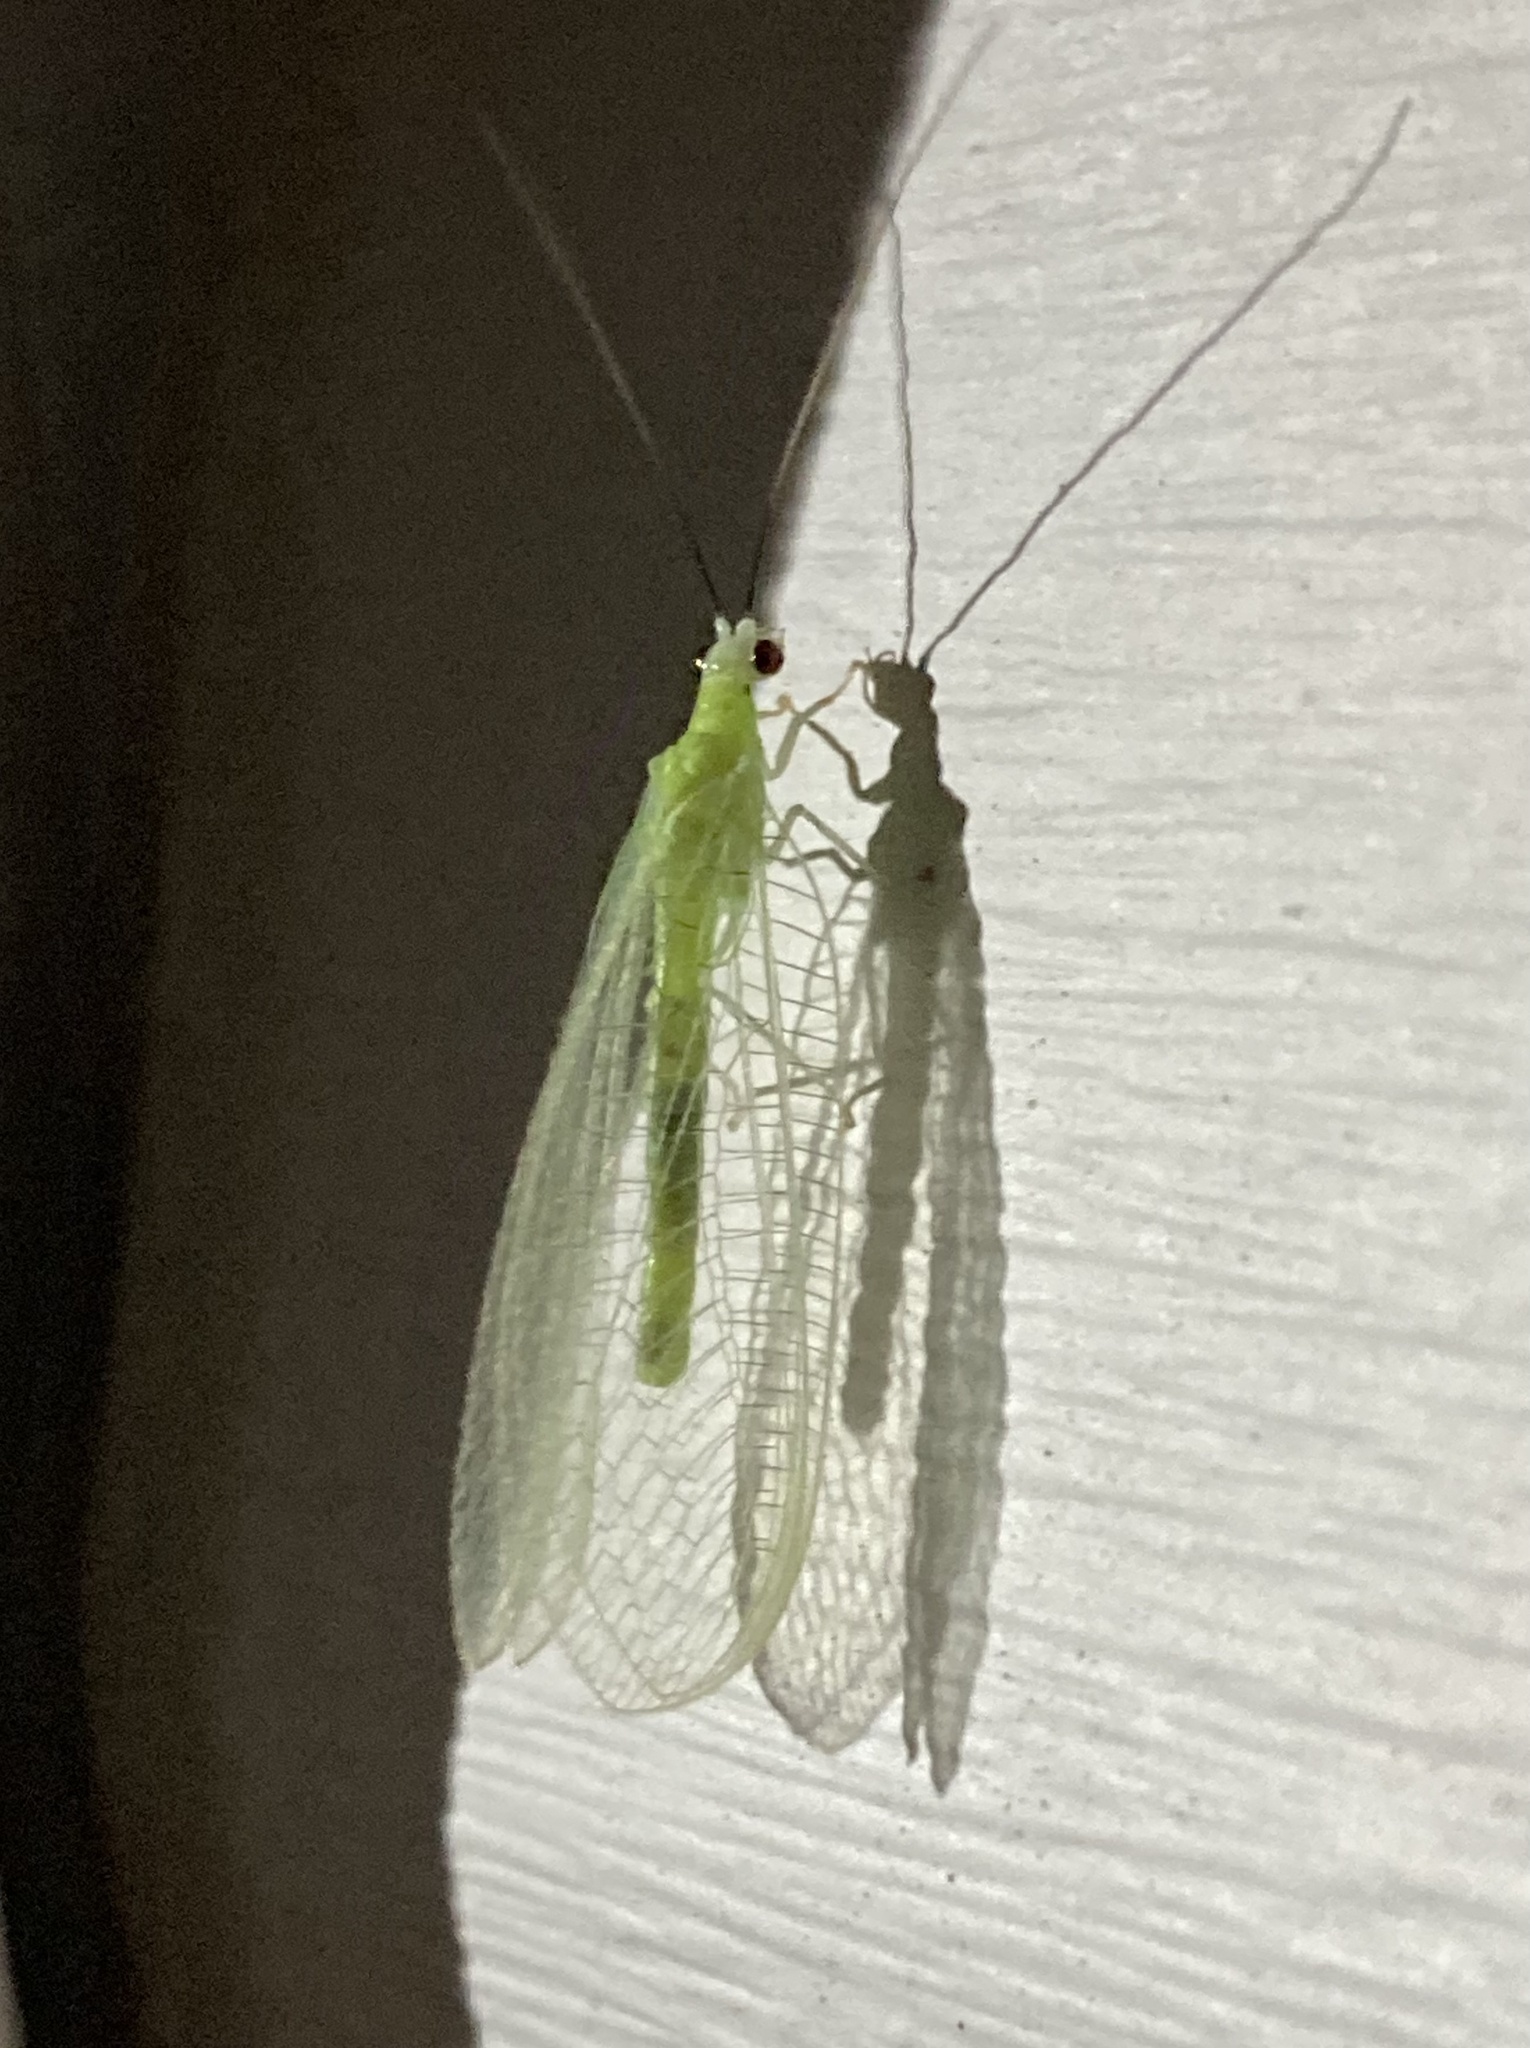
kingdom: Animalia
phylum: Arthropoda
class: Insecta
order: Neuroptera
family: Chrysopidae
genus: Chrysopa
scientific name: Chrysopa nigricornis
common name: Black-horned green lacewing
